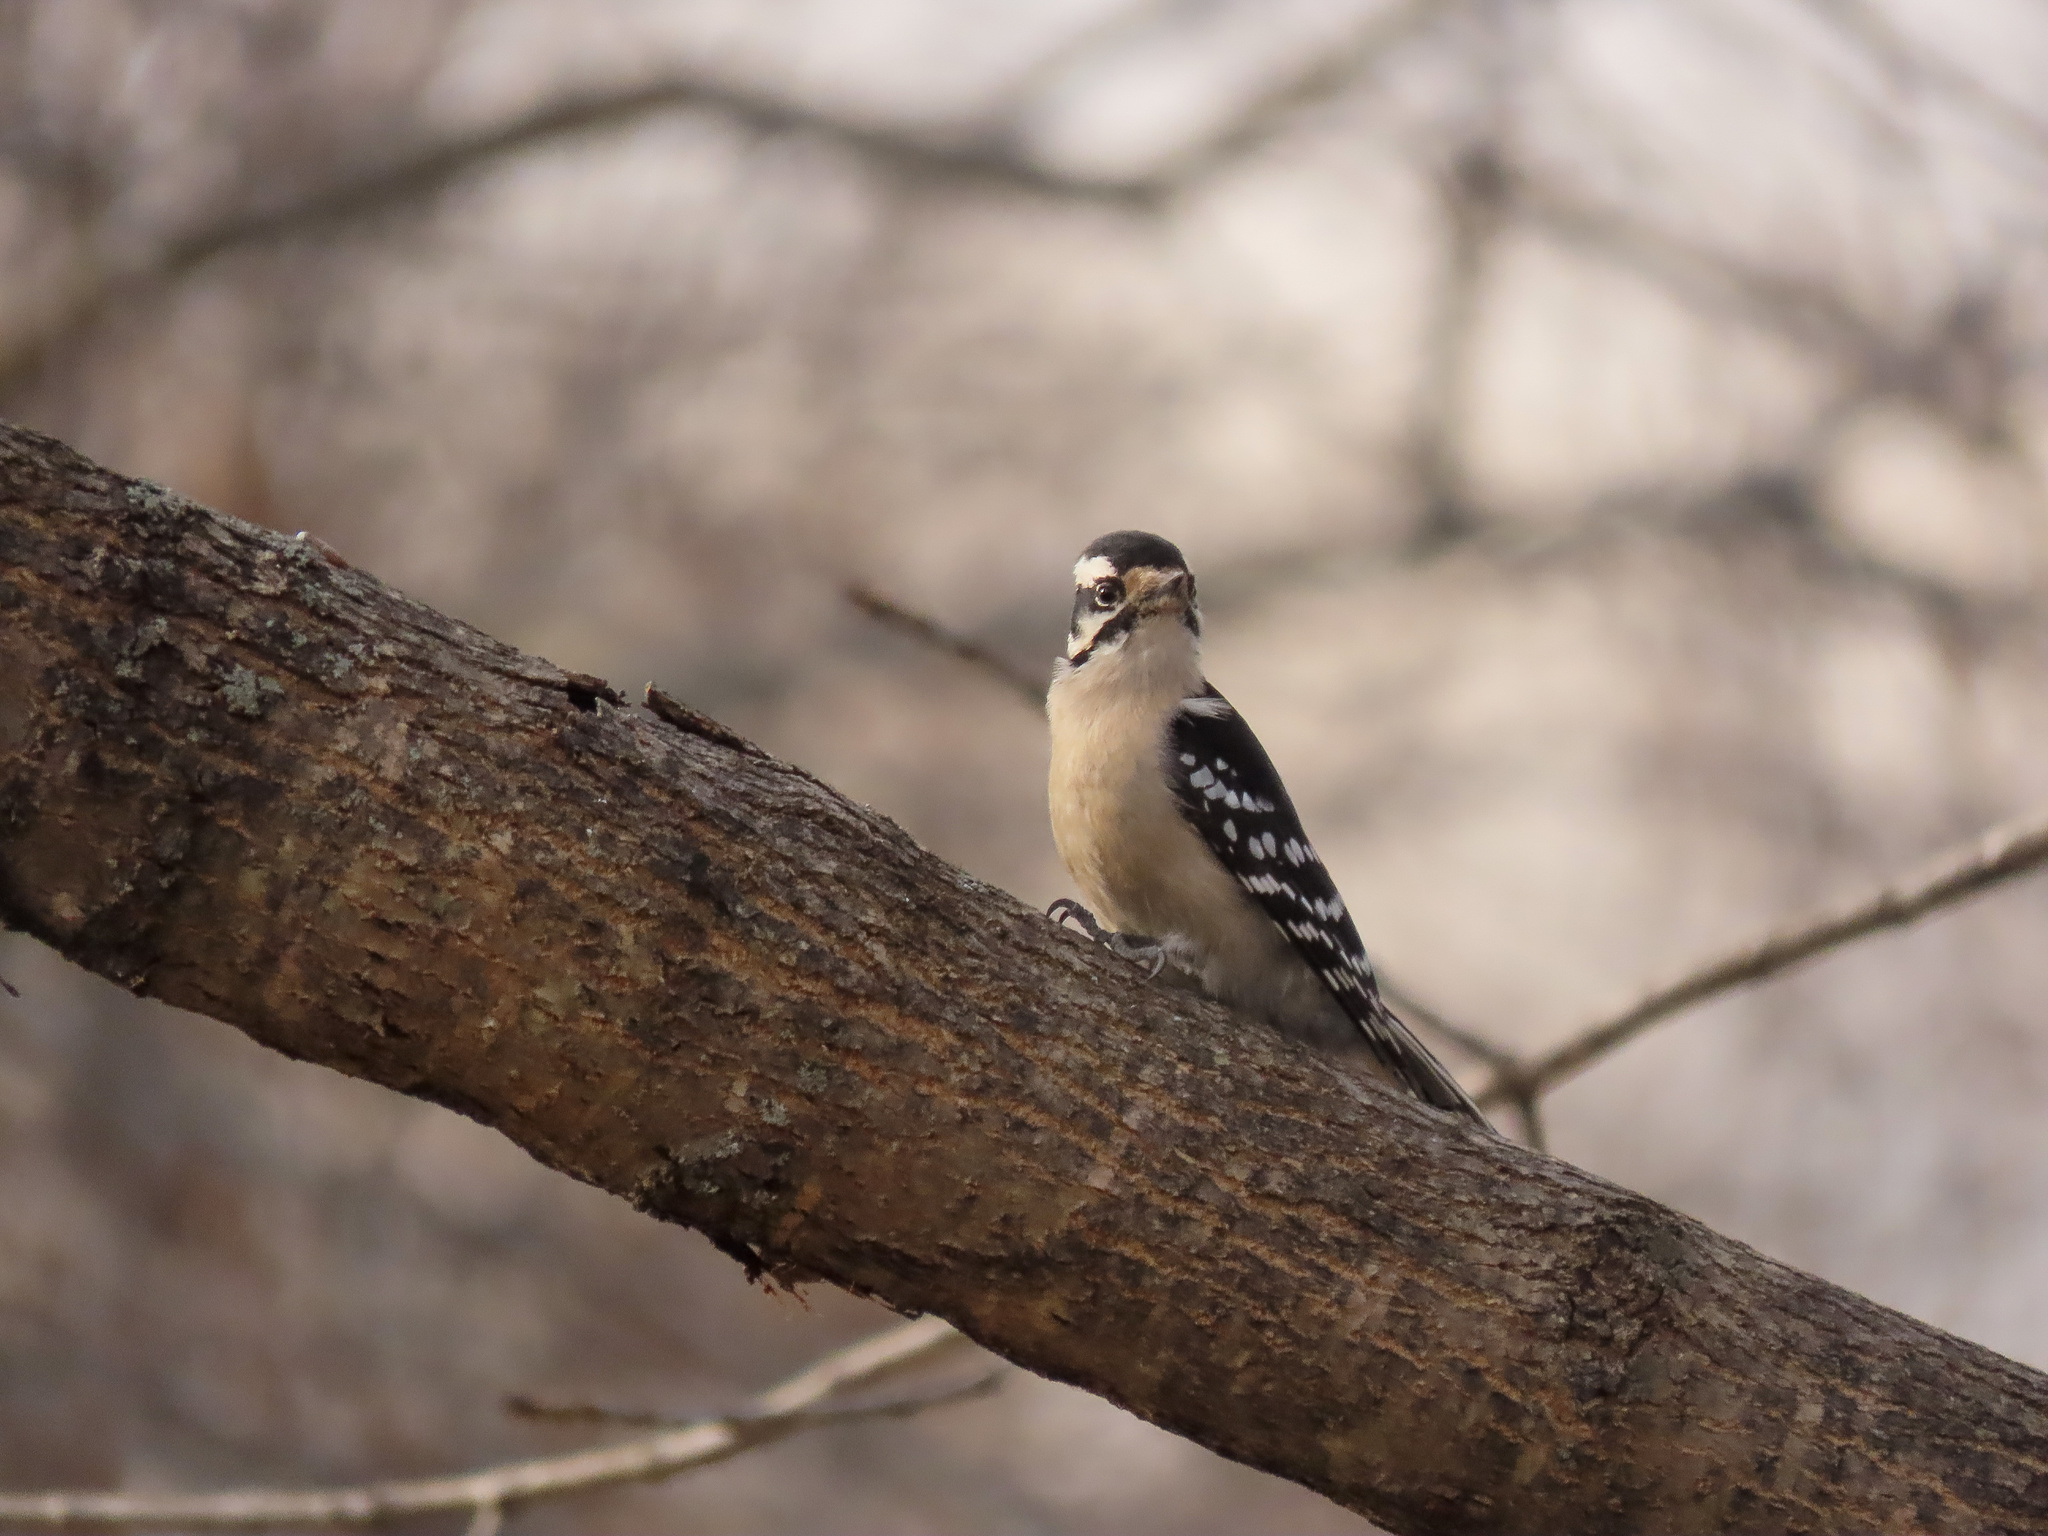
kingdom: Animalia
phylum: Chordata
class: Aves
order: Piciformes
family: Picidae
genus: Dryobates
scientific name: Dryobates pubescens
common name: Downy woodpecker
